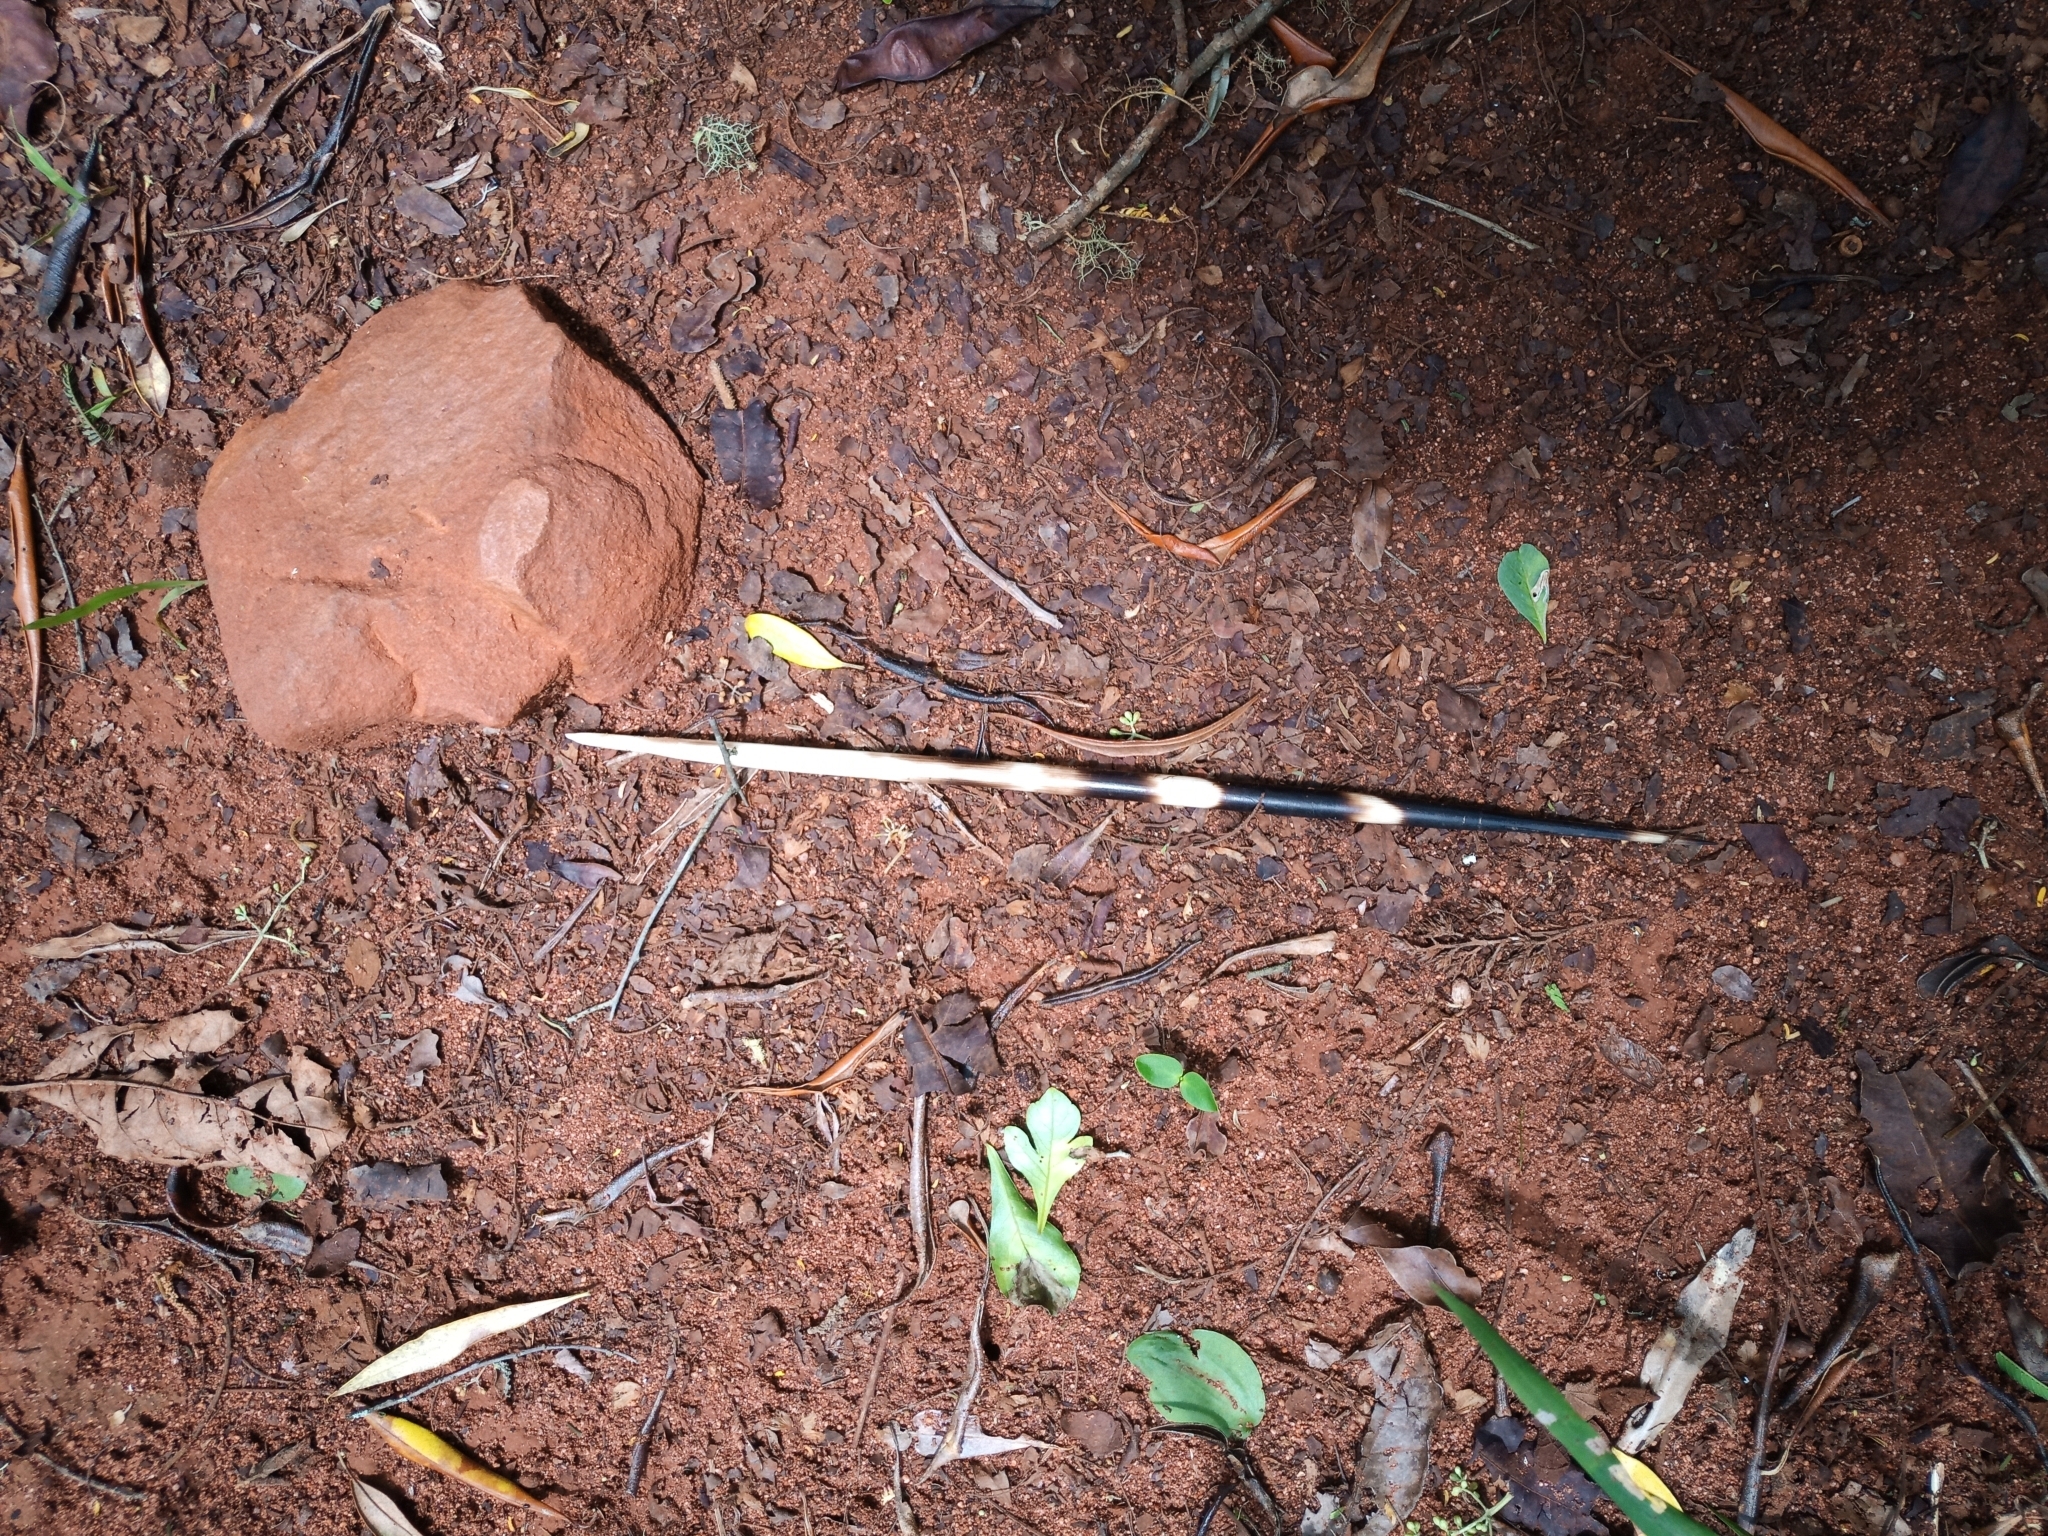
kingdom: Animalia
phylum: Chordata
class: Mammalia
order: Rodentia
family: Hystricidae
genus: Hystrix
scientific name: Hystrix africaeaustralis
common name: Cape porcupine
